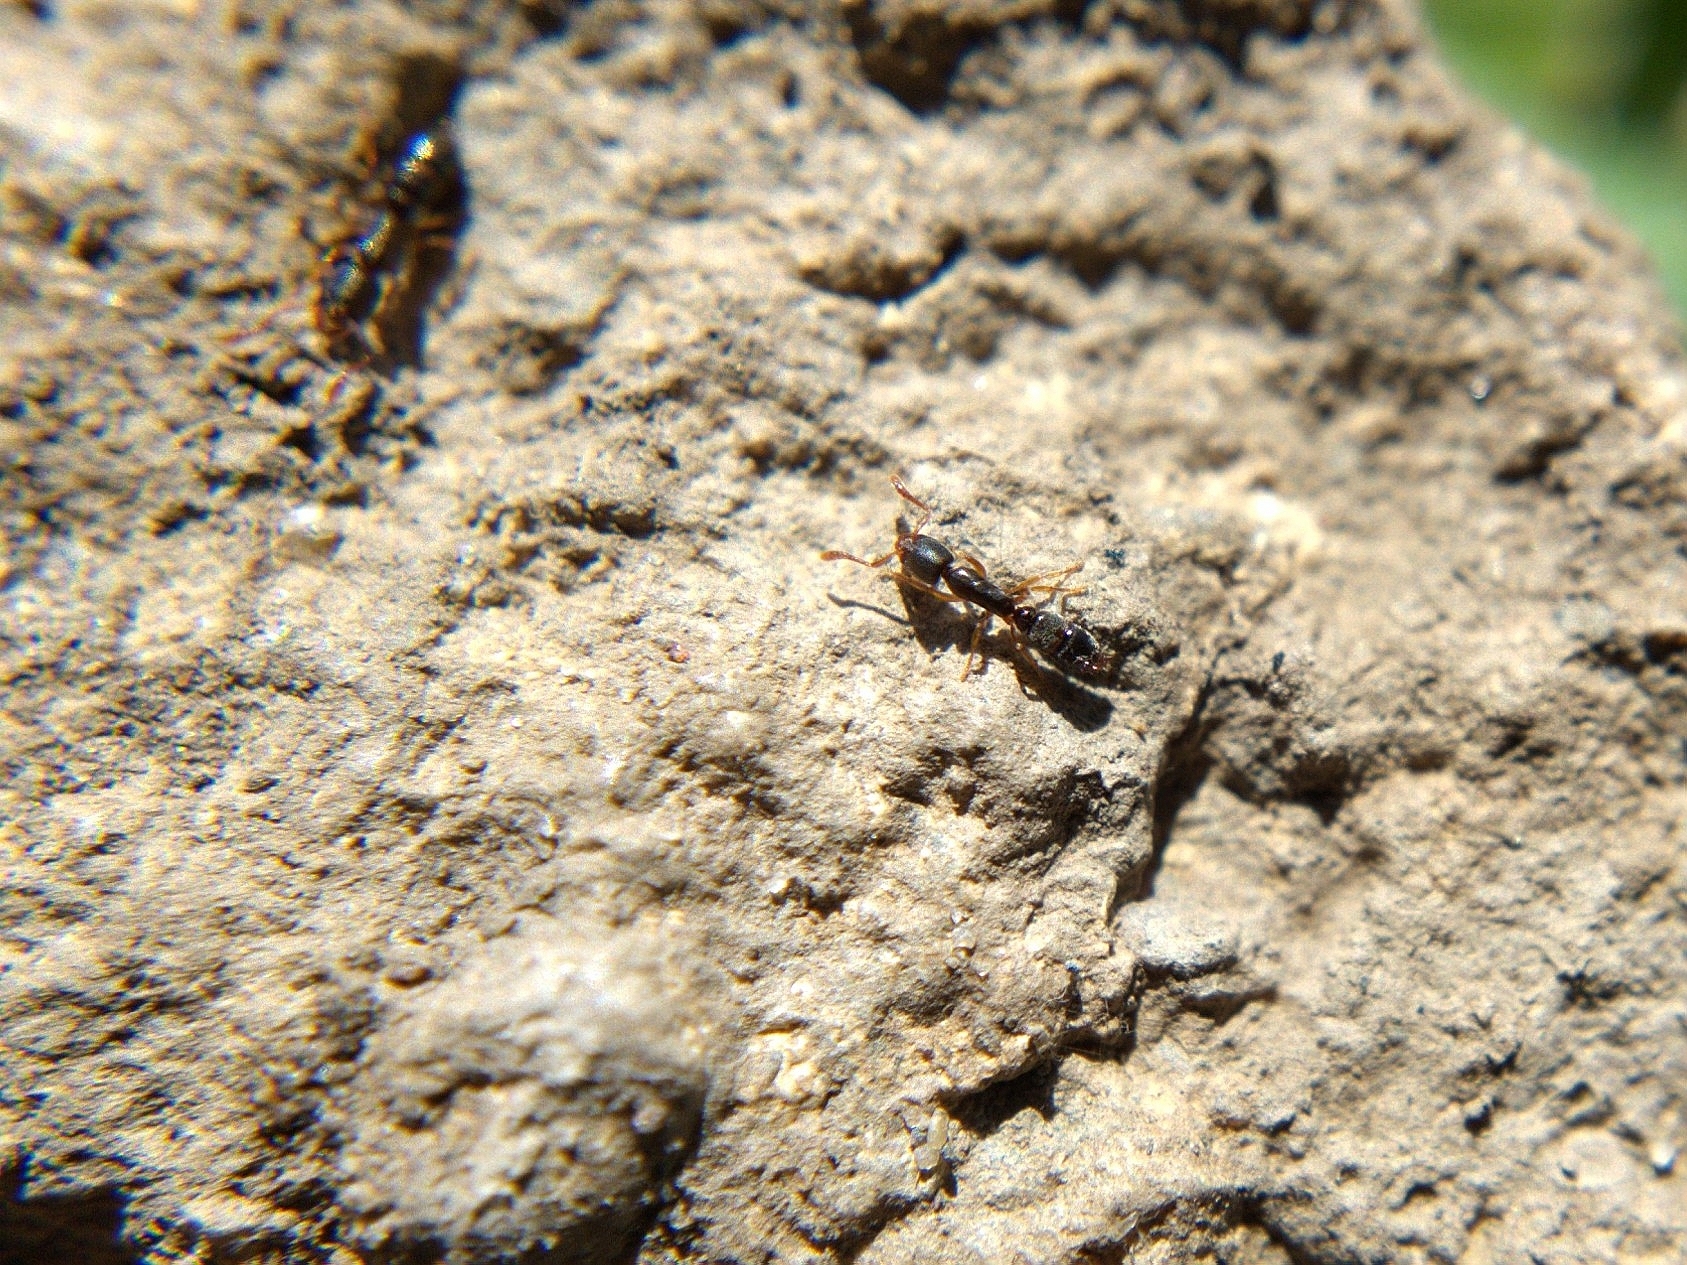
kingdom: Animalia
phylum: Arthropoda
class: Insecta
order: Hymenoptera
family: Formicidae
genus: Ponera
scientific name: Ponera pennsylvanica
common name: Pennsylvania ponera
